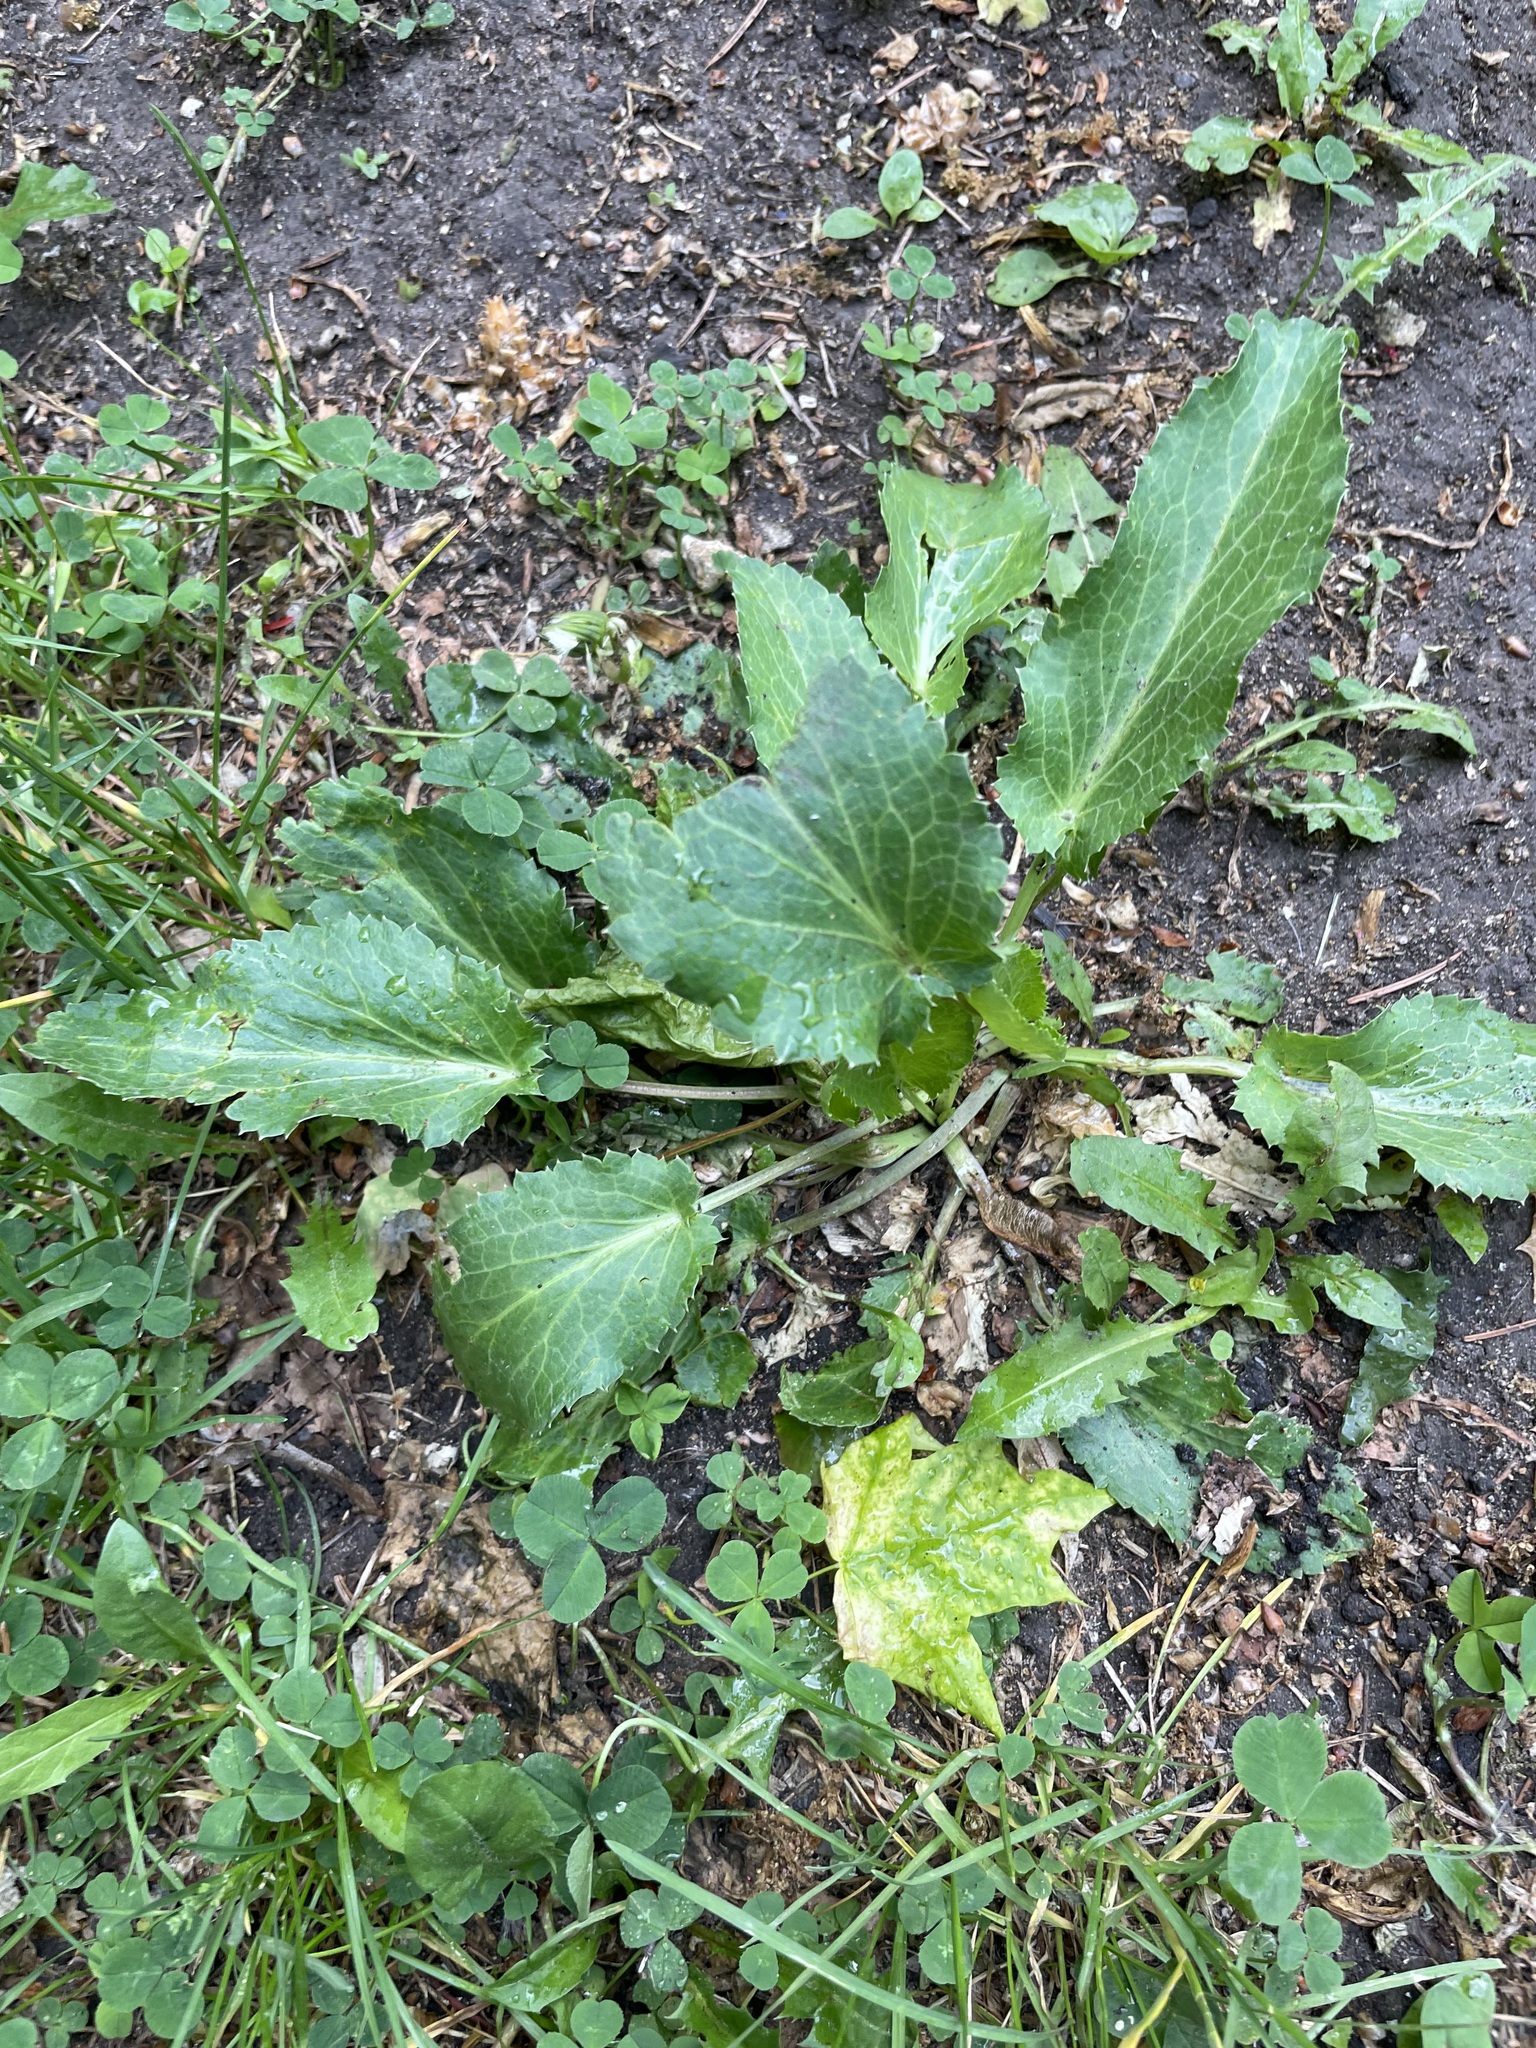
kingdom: Plantae
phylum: Tracheophyta
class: Magnoliopsida
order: Apiales
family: Apiaceae
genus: Eryngium
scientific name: Eryngium planum
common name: Blue eryngo
